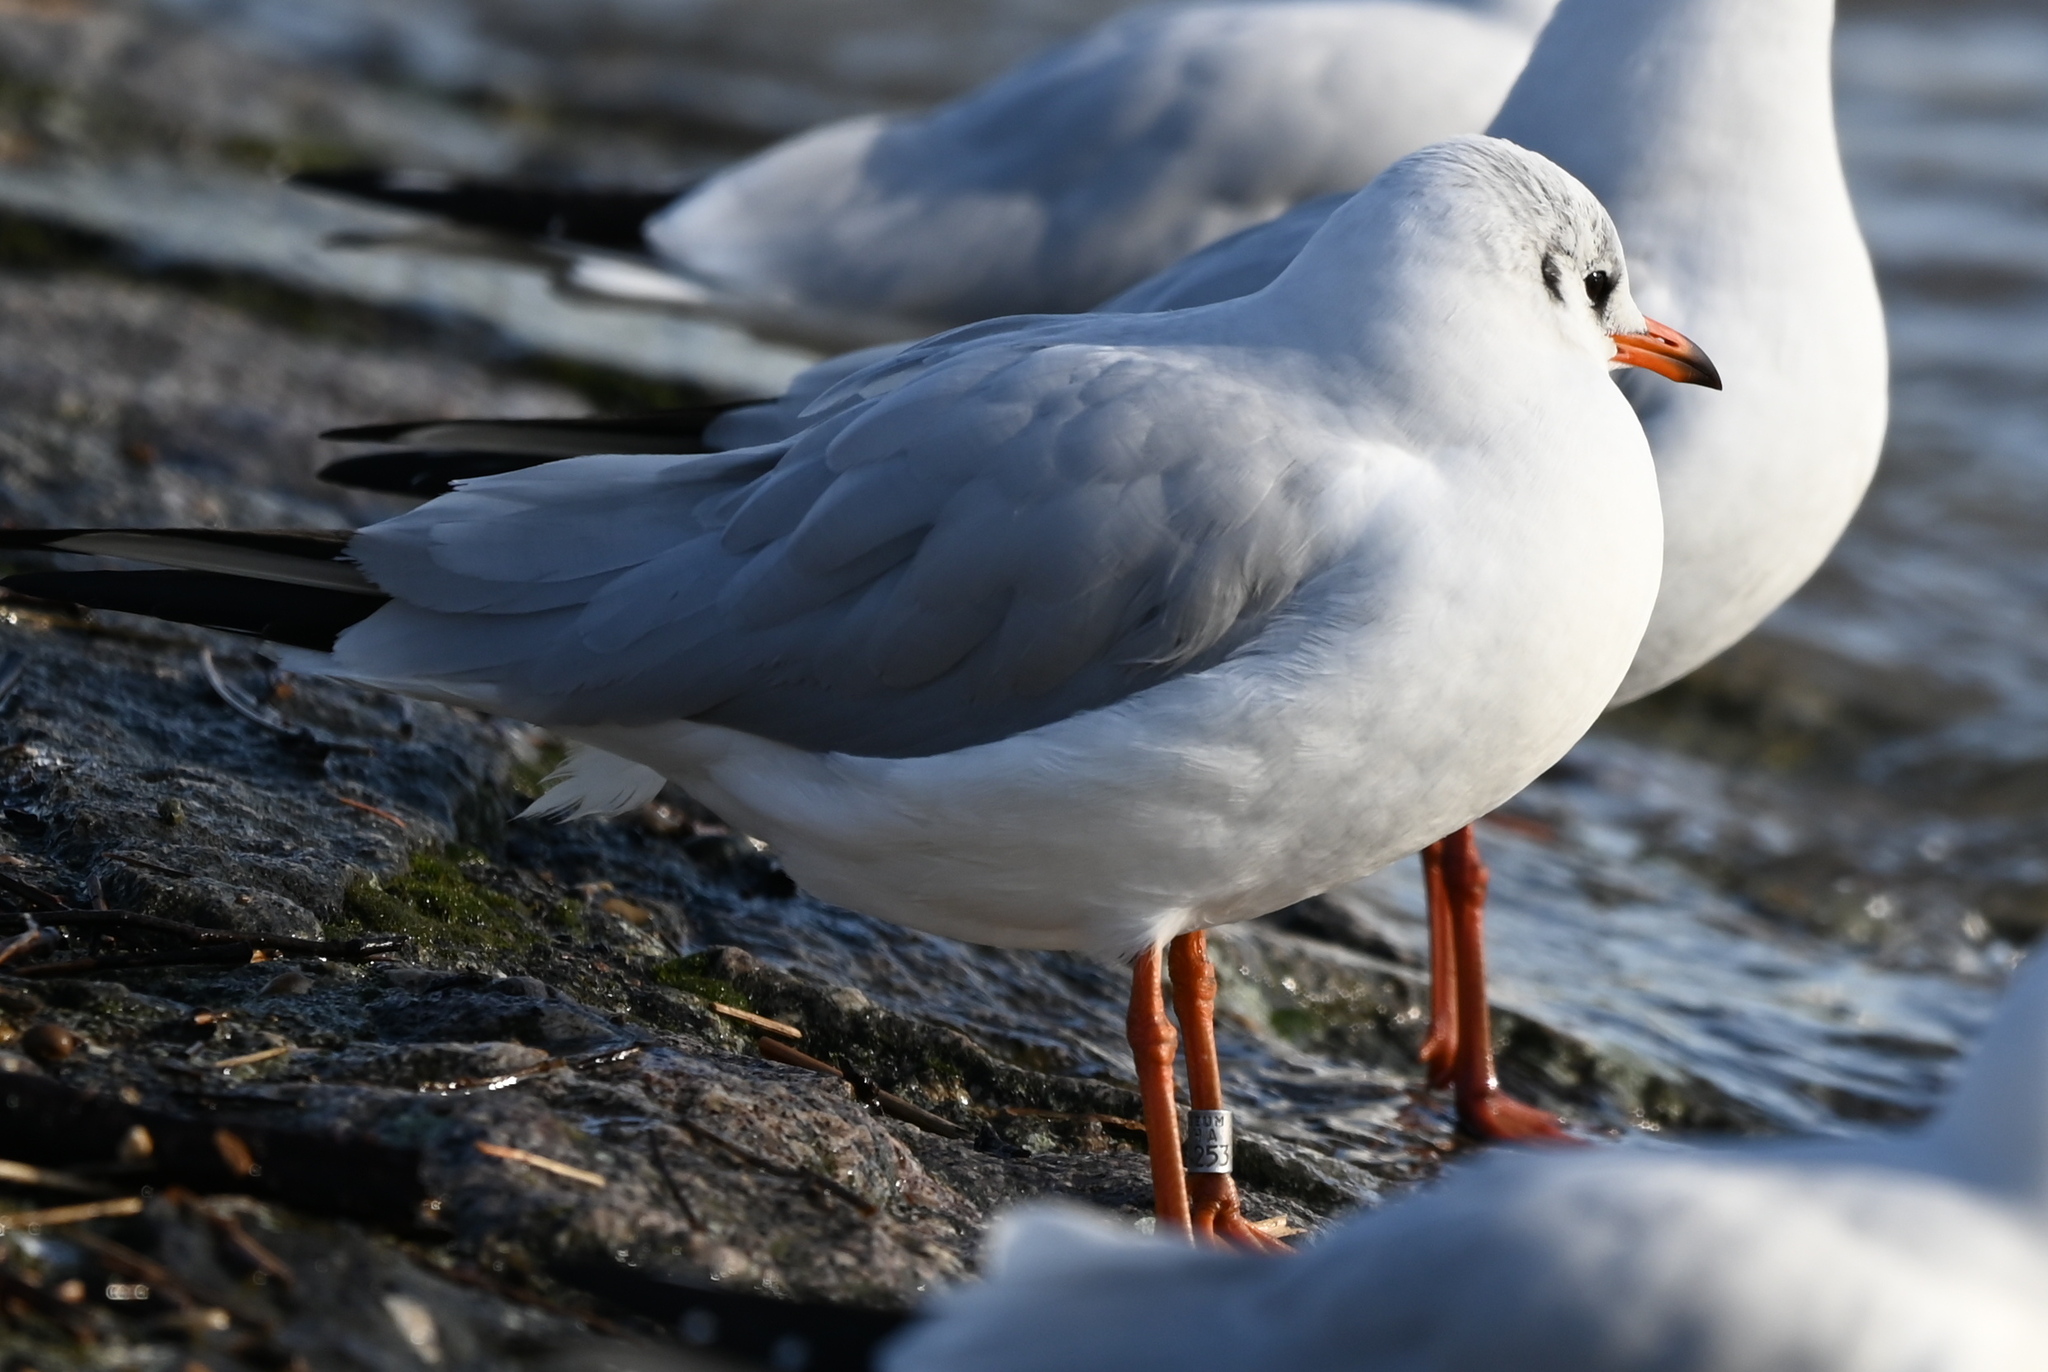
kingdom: Animalia
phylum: Chordata
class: Aves
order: Charadriiformes
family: Laridae
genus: Chroicocephalus
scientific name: Chroicocephalus ridibundus
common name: Black-headed gull
